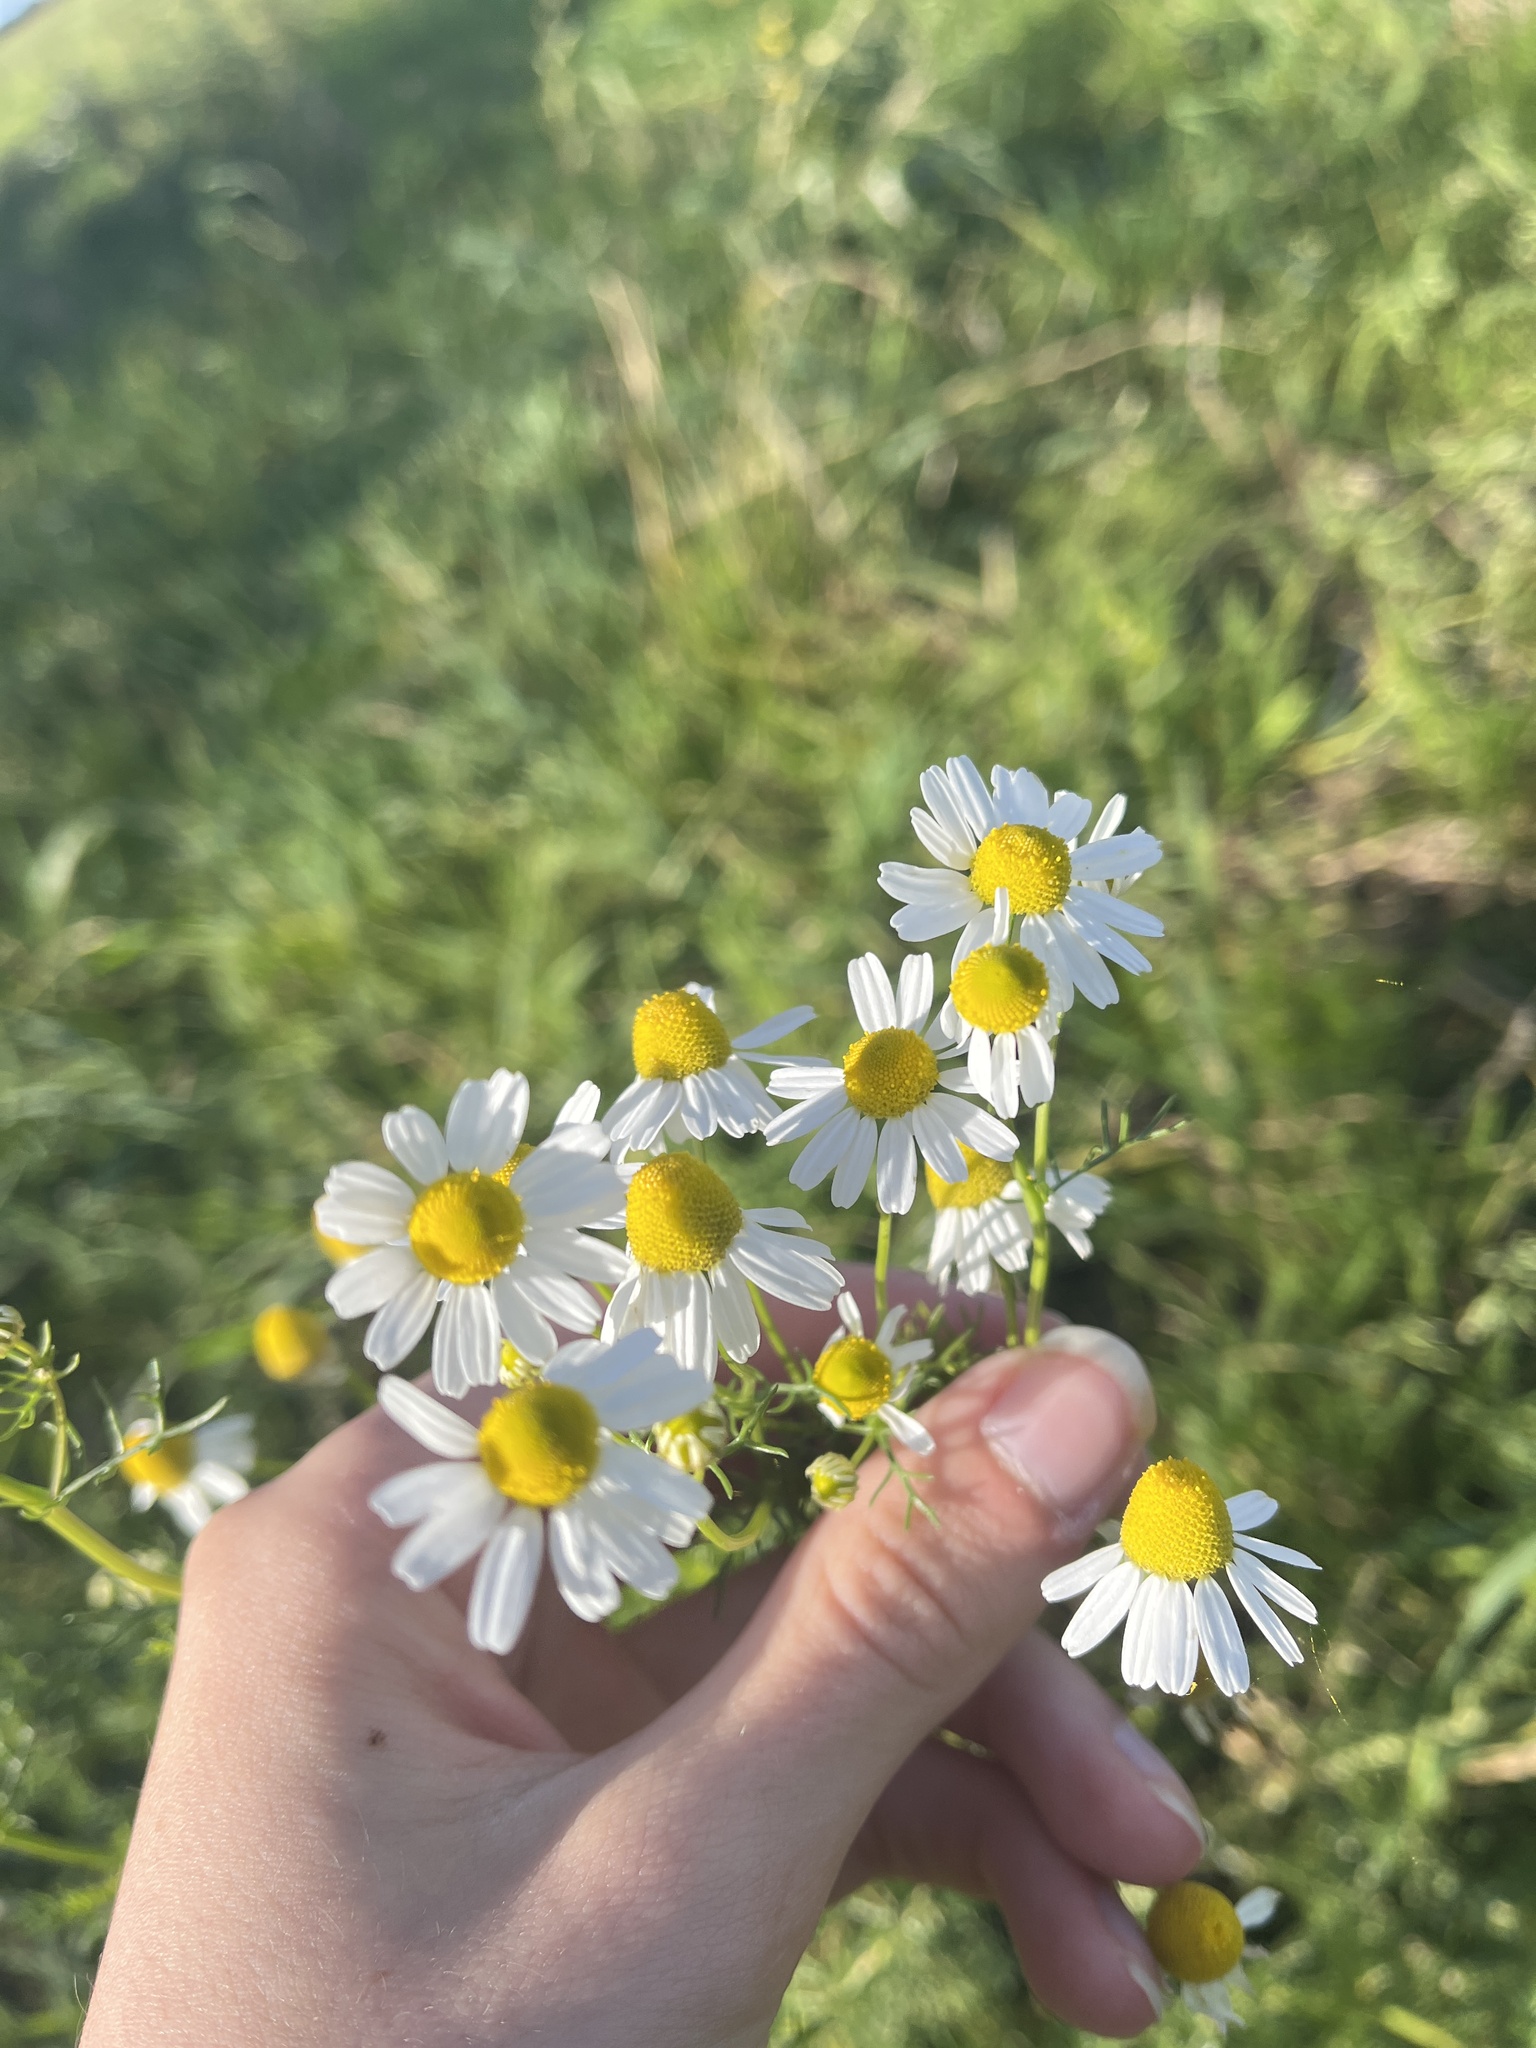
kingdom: Plantae
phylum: Tracheophyta
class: Magnoliopsida
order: Asterales
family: Asteraceae
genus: Matricaria
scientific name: Matricaria chamomilla
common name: Scented mayweed
